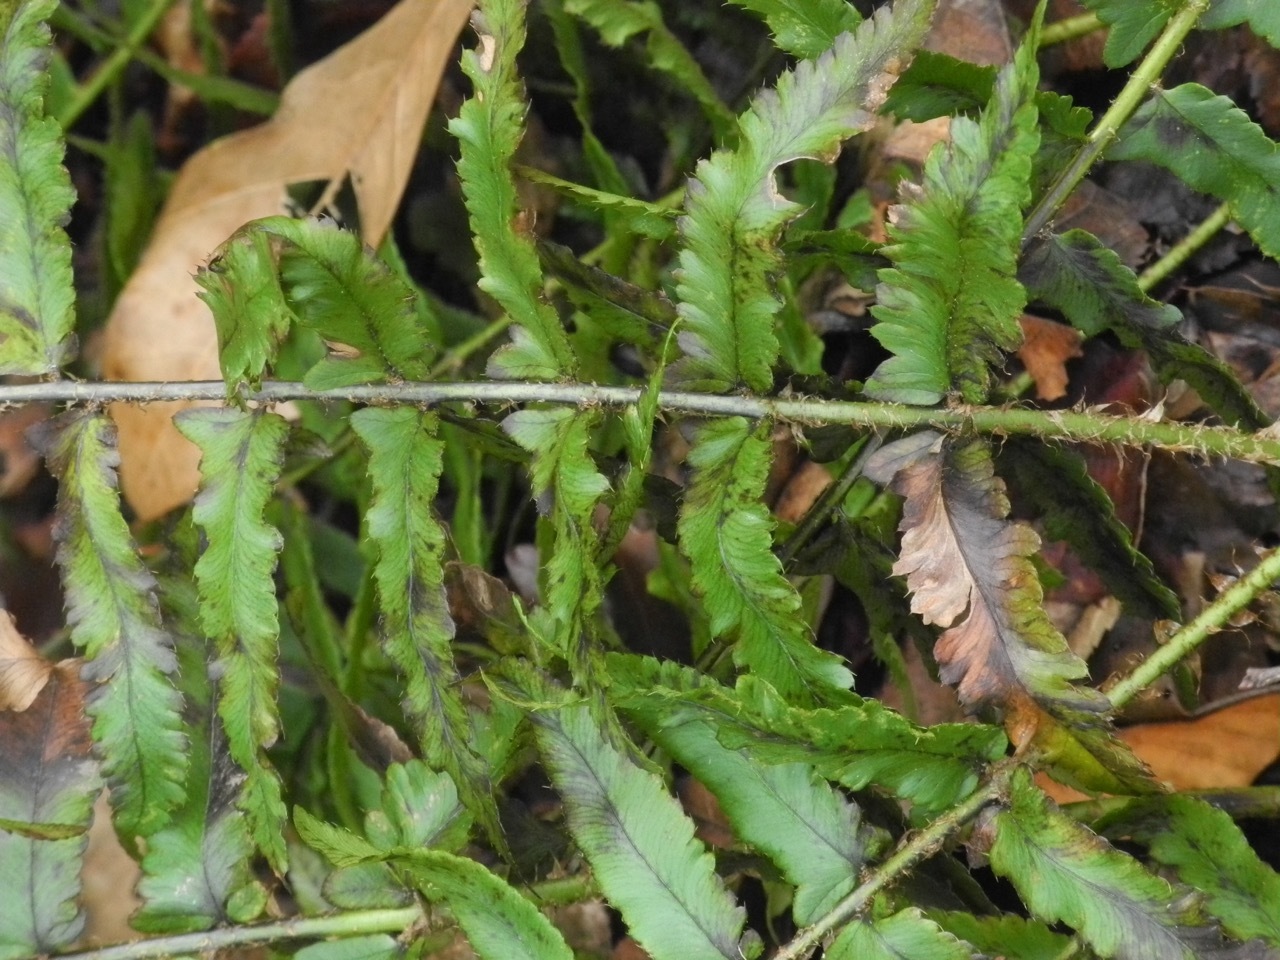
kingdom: Plantae
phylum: Tracheophyta
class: Polypodiopsida
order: Polypodiales
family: Dryopteridaceae
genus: Polystichum
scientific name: Polystichum acrostichoides
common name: Christmas fern
